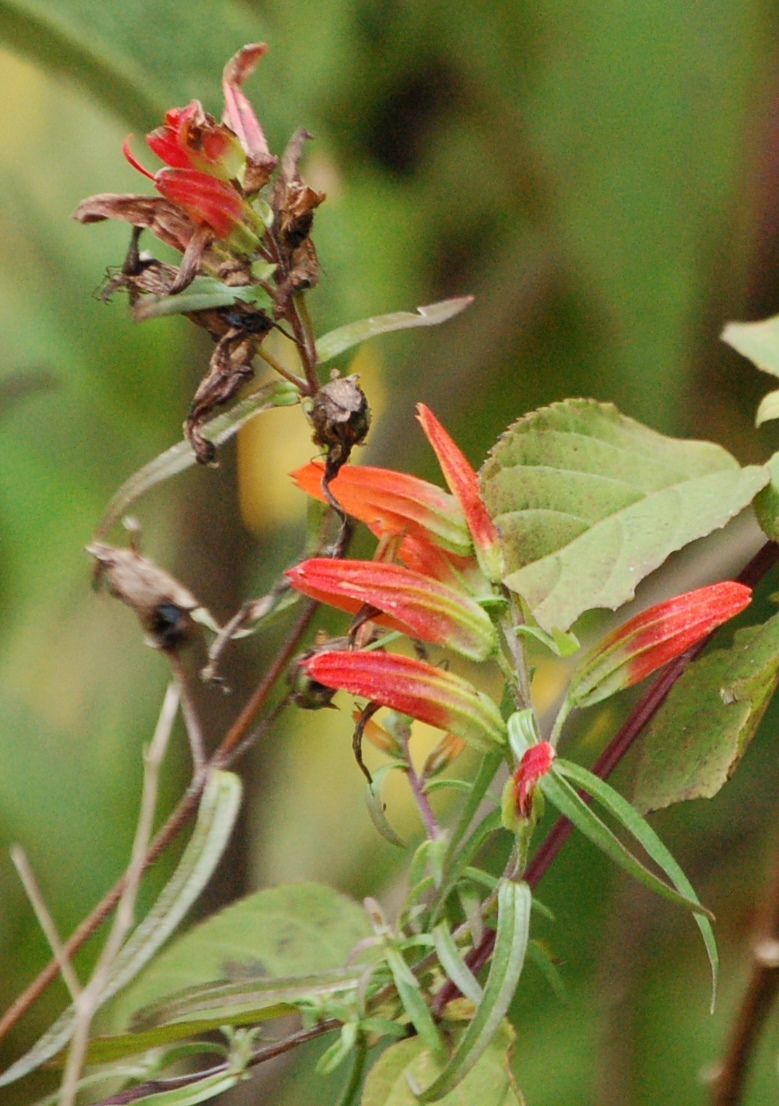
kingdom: Plantae
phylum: Tracheophyta
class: Magnoliopsida
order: Lamiales
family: Orobanchaceae
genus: Castilleja
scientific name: Castilleja integrifolia
